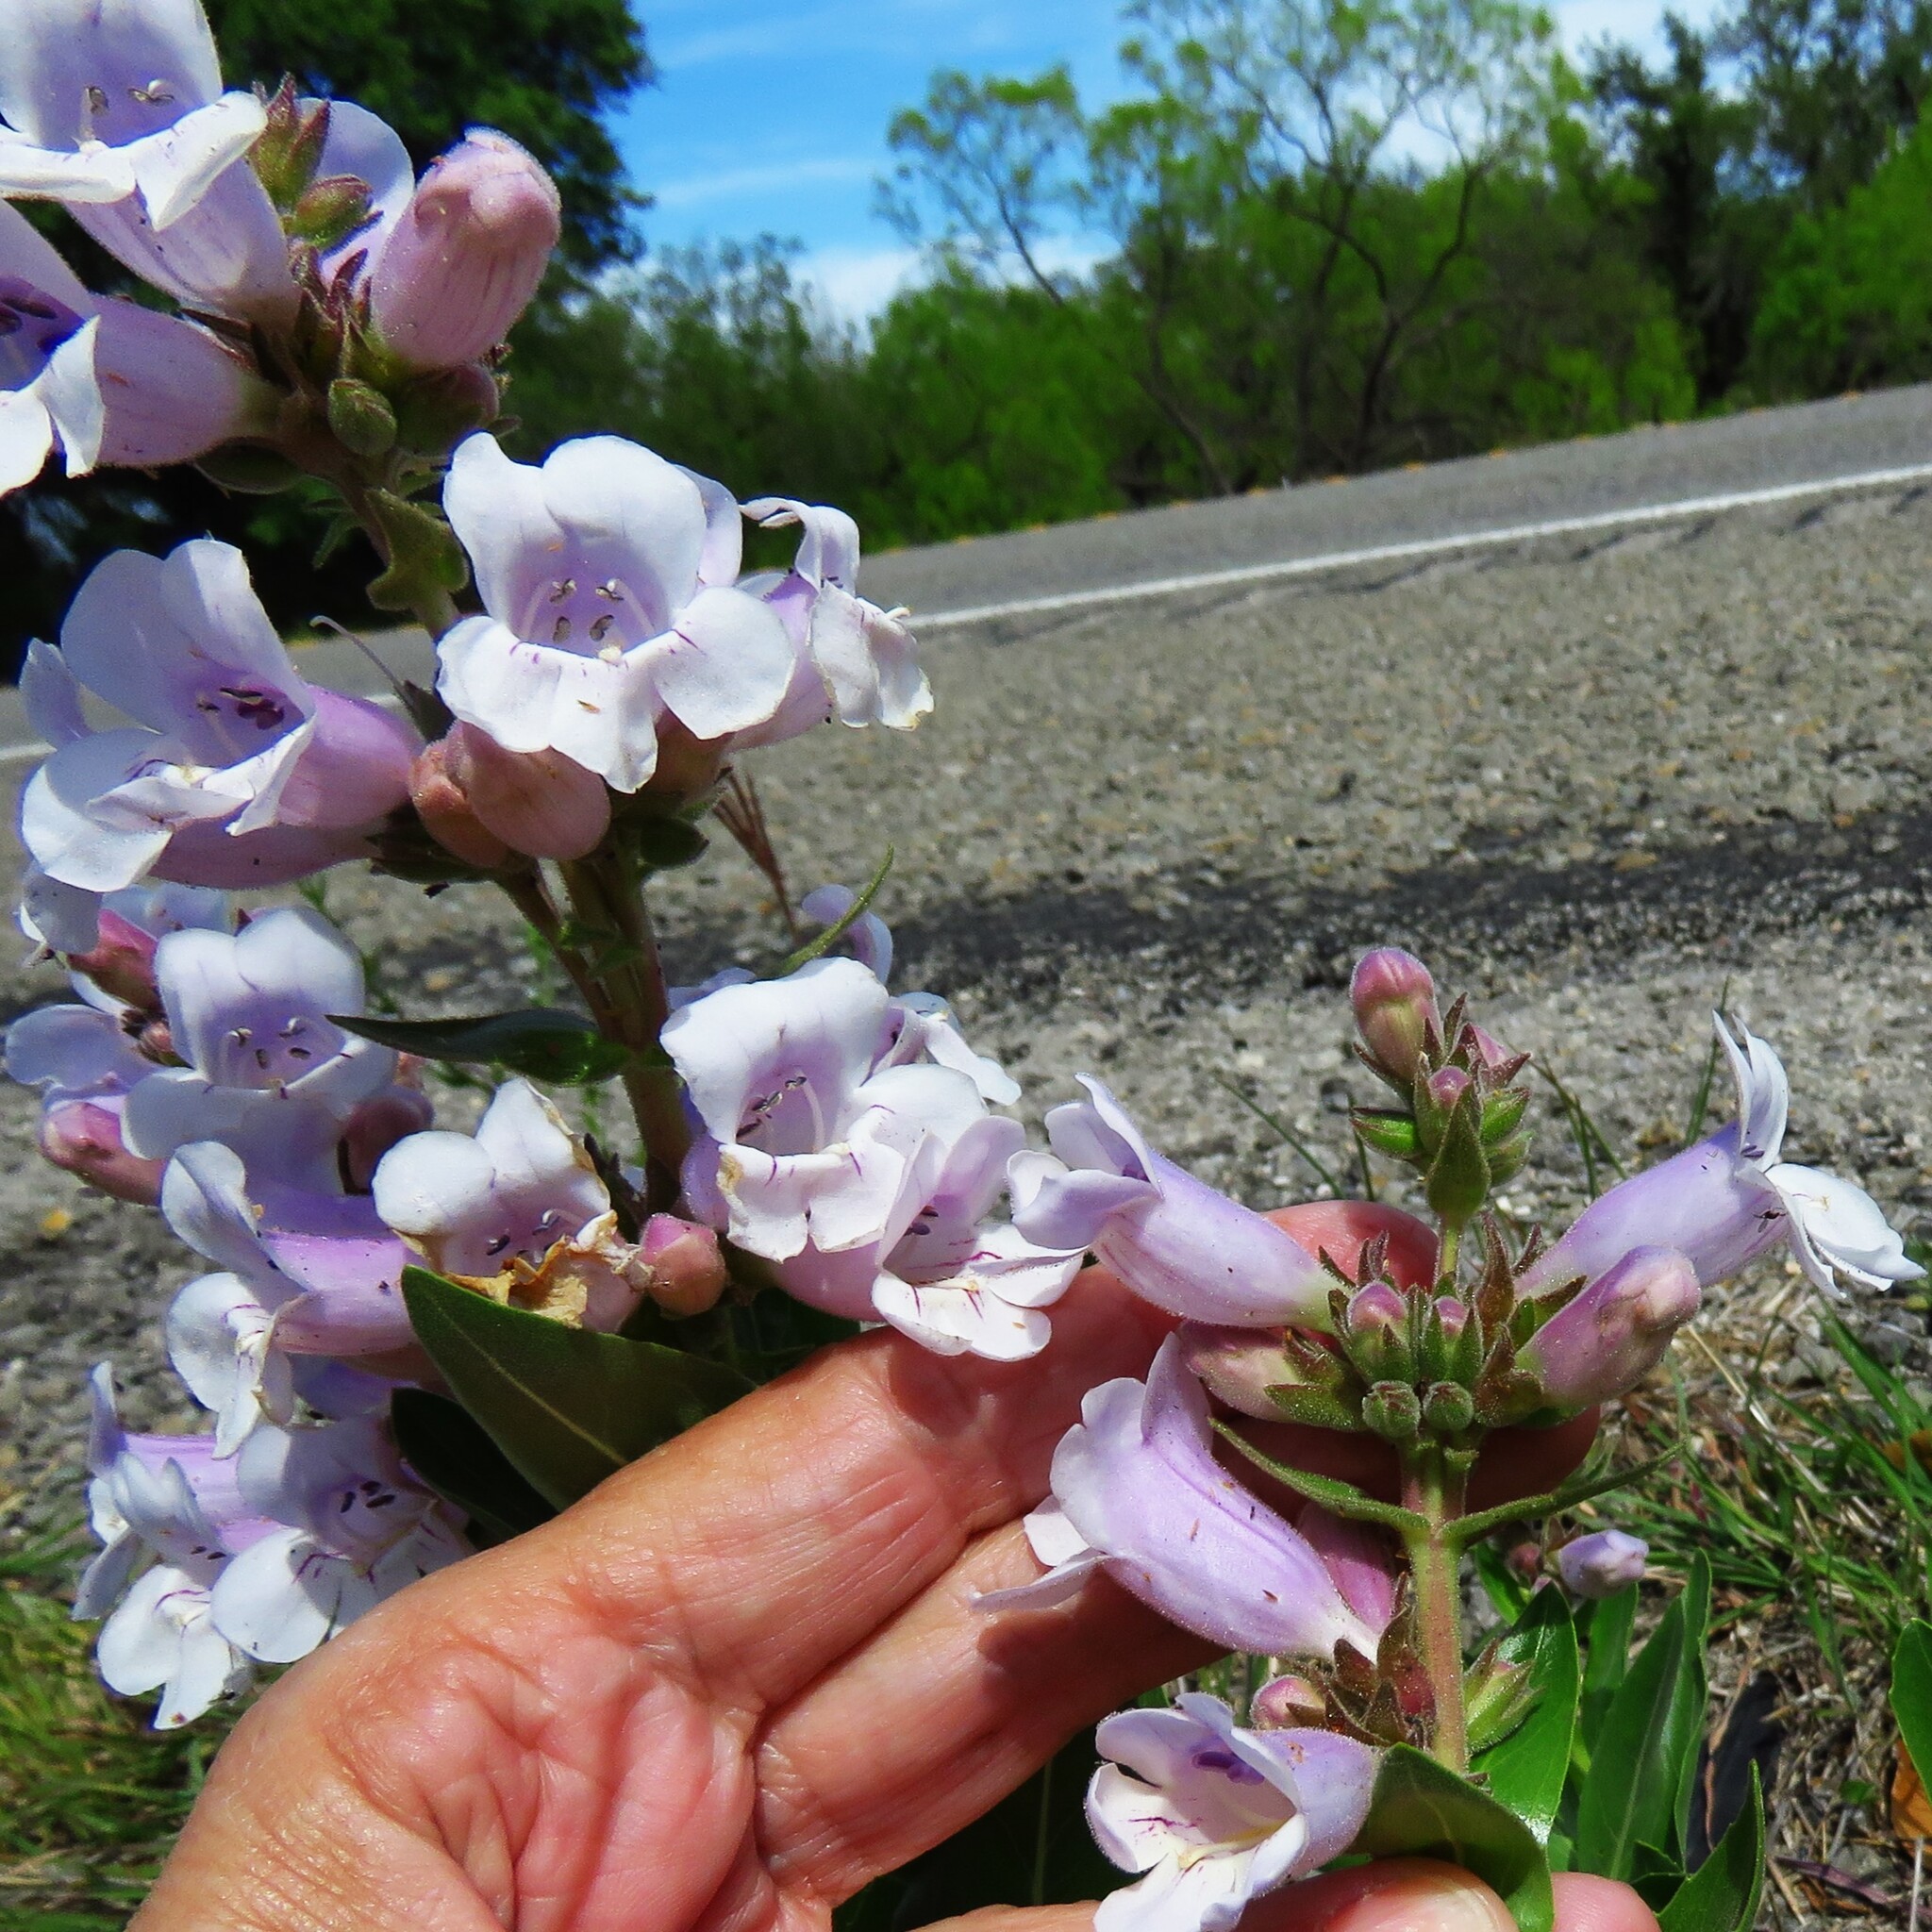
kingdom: Plantae
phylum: Tracheophyta
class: Magnoliopsida
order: Lamiales
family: Plantaginaceae
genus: Penstemon
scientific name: Penstemon cobaea
